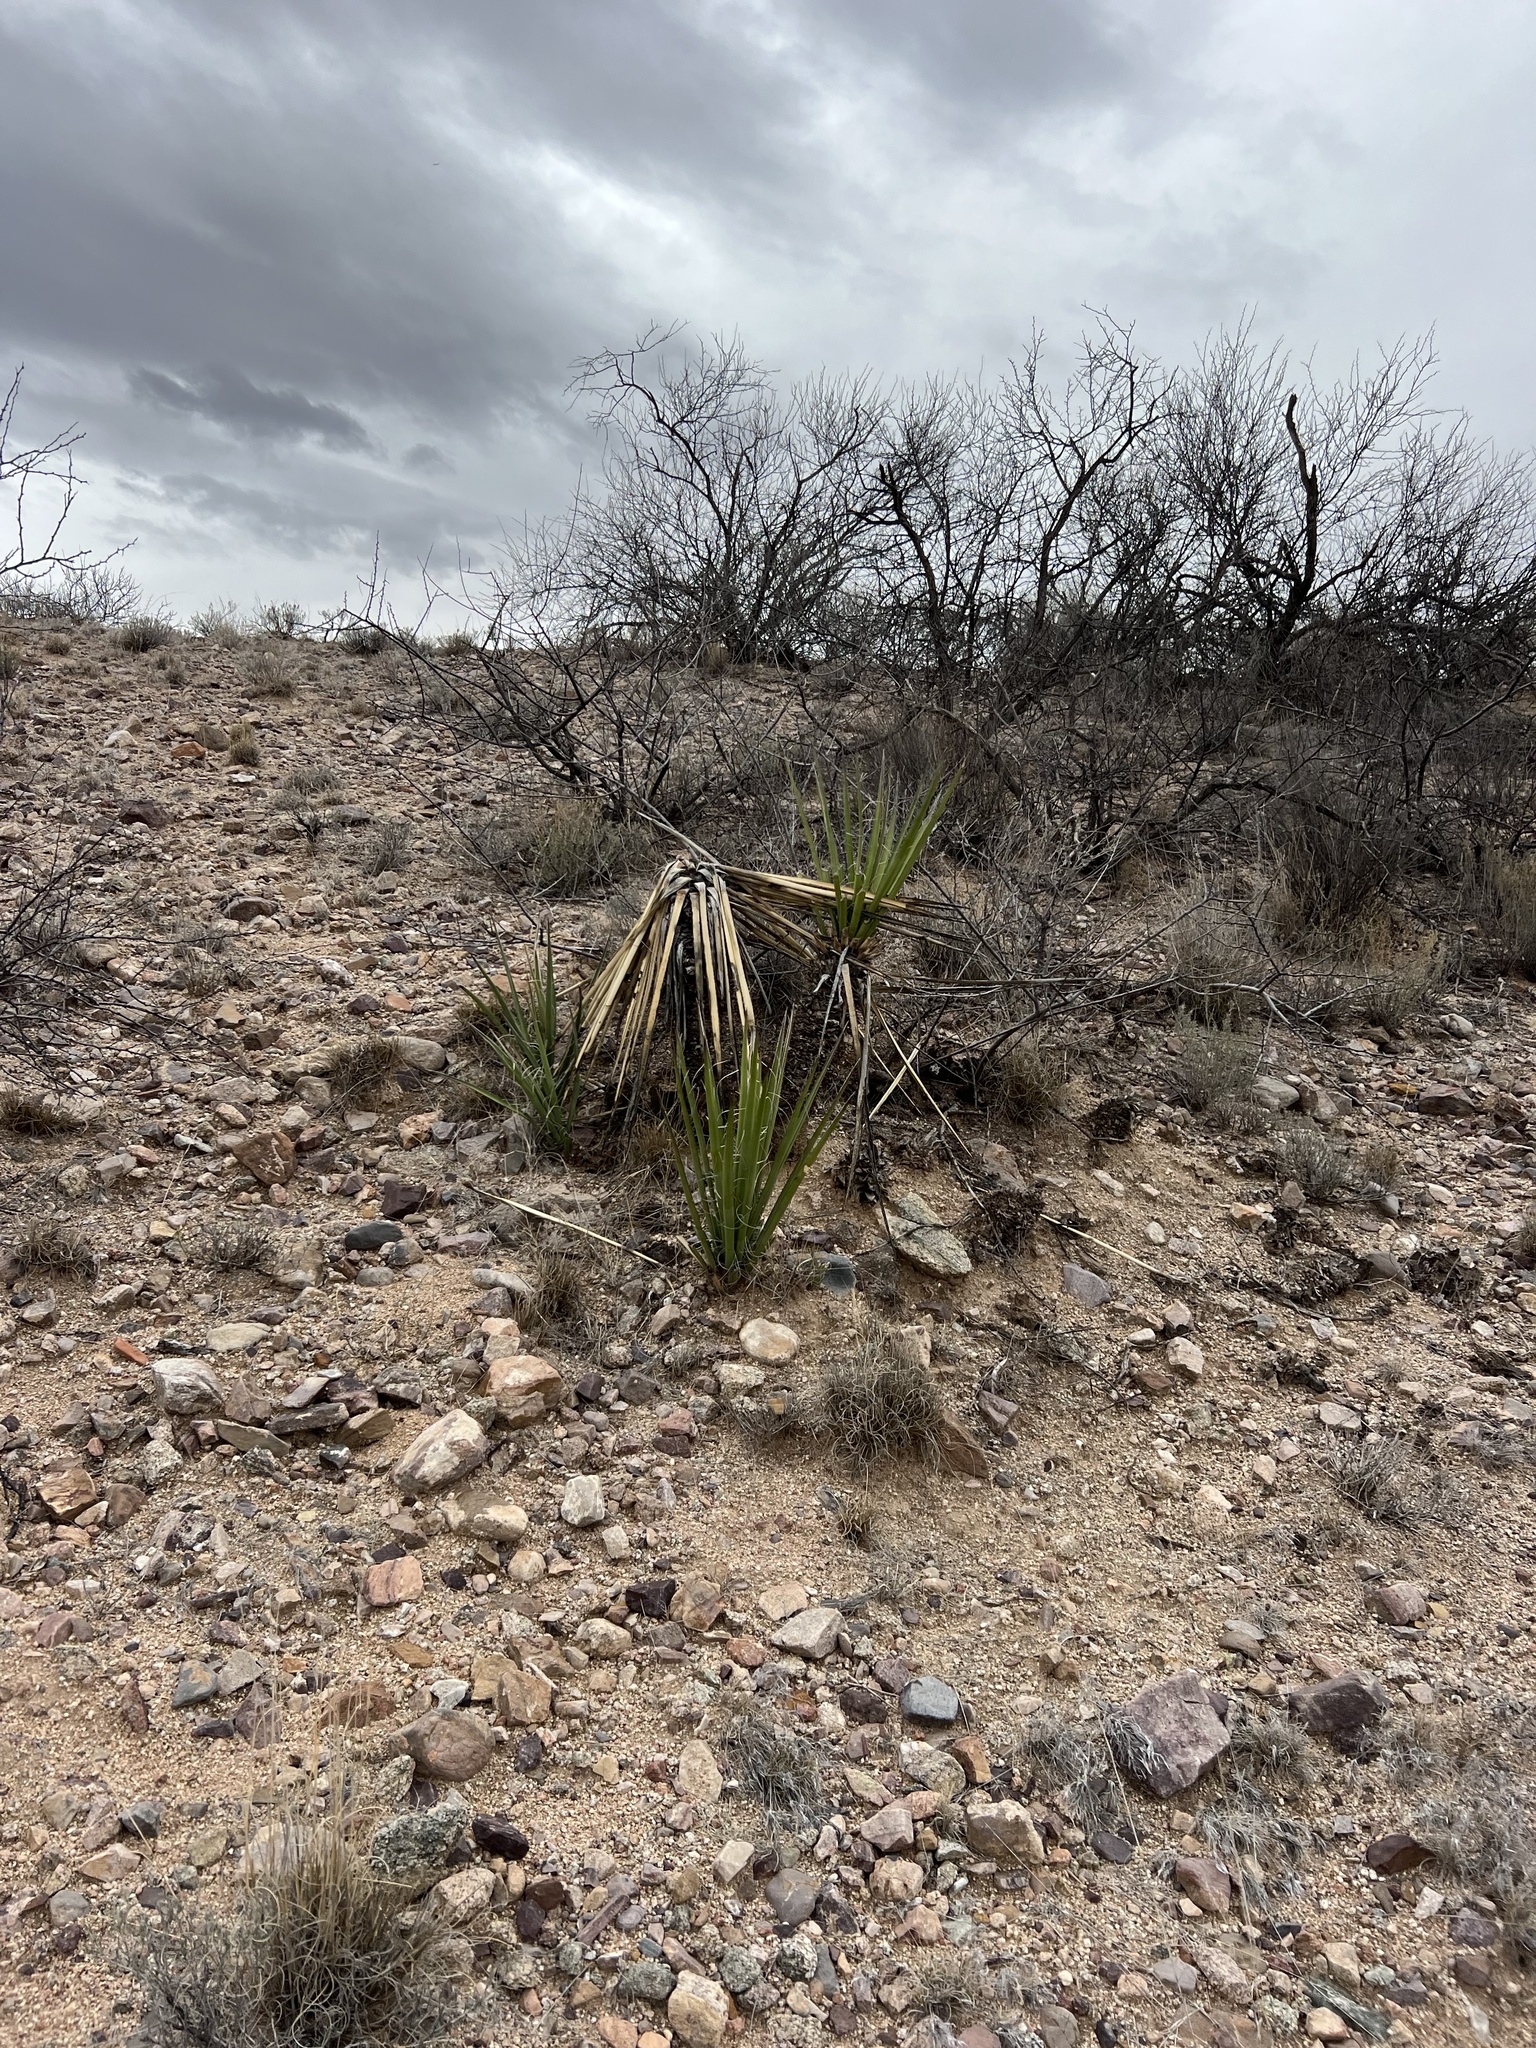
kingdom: Plantae
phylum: Tracheophyta
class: Liliopsida
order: Asparagales
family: Asparagaceae
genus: Yucca
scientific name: Yucca baccata
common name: Banana yucca
